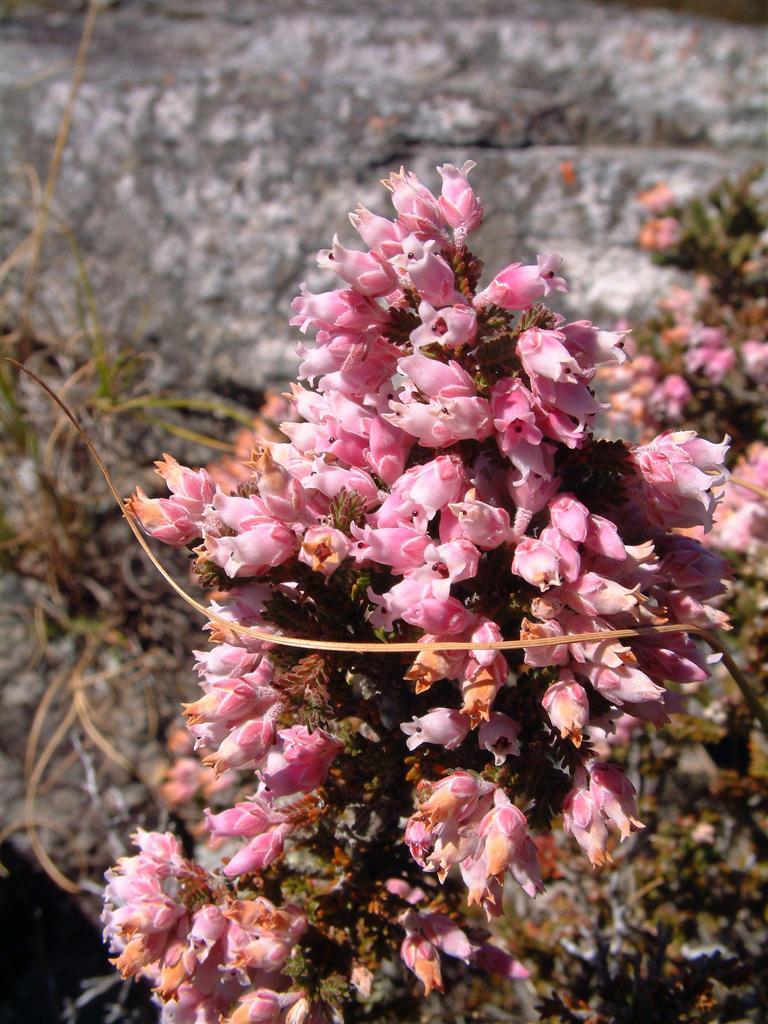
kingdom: Plantae
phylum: Tracheophyta
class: Magnoliopsida
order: Ericales
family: Ericaceae
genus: Erica
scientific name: Erica modesta
